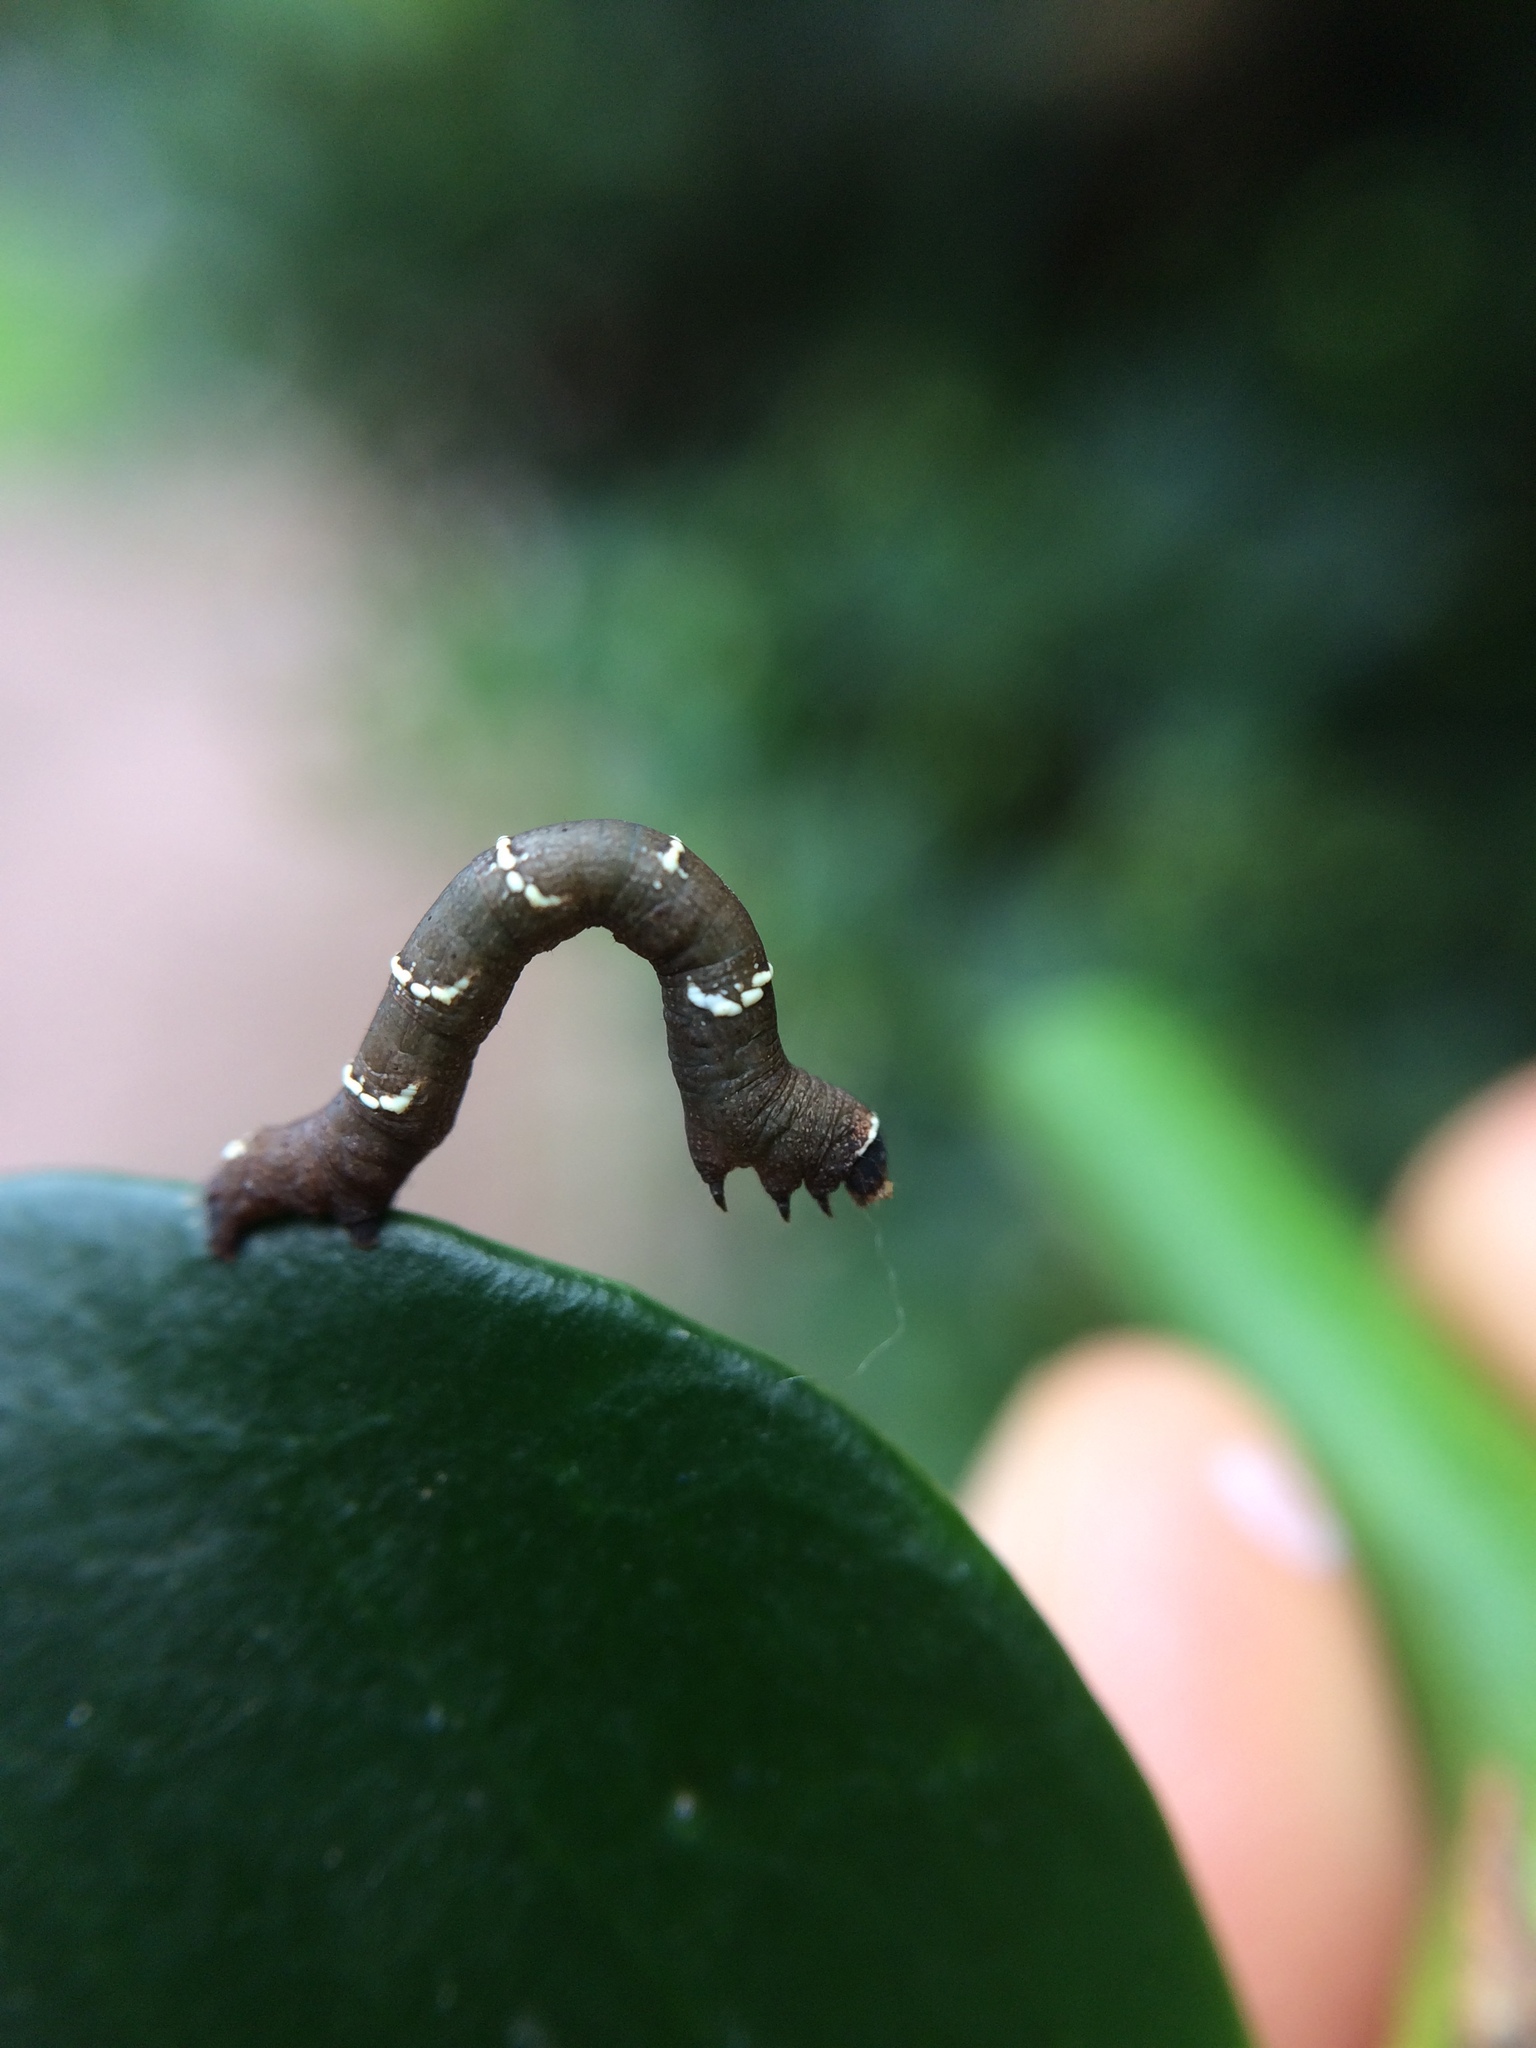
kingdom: Animalia
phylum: Arthropoda
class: Insecta
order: Lepidoptera
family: Geometridae
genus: Colocleora
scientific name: Colocleora divisaria
